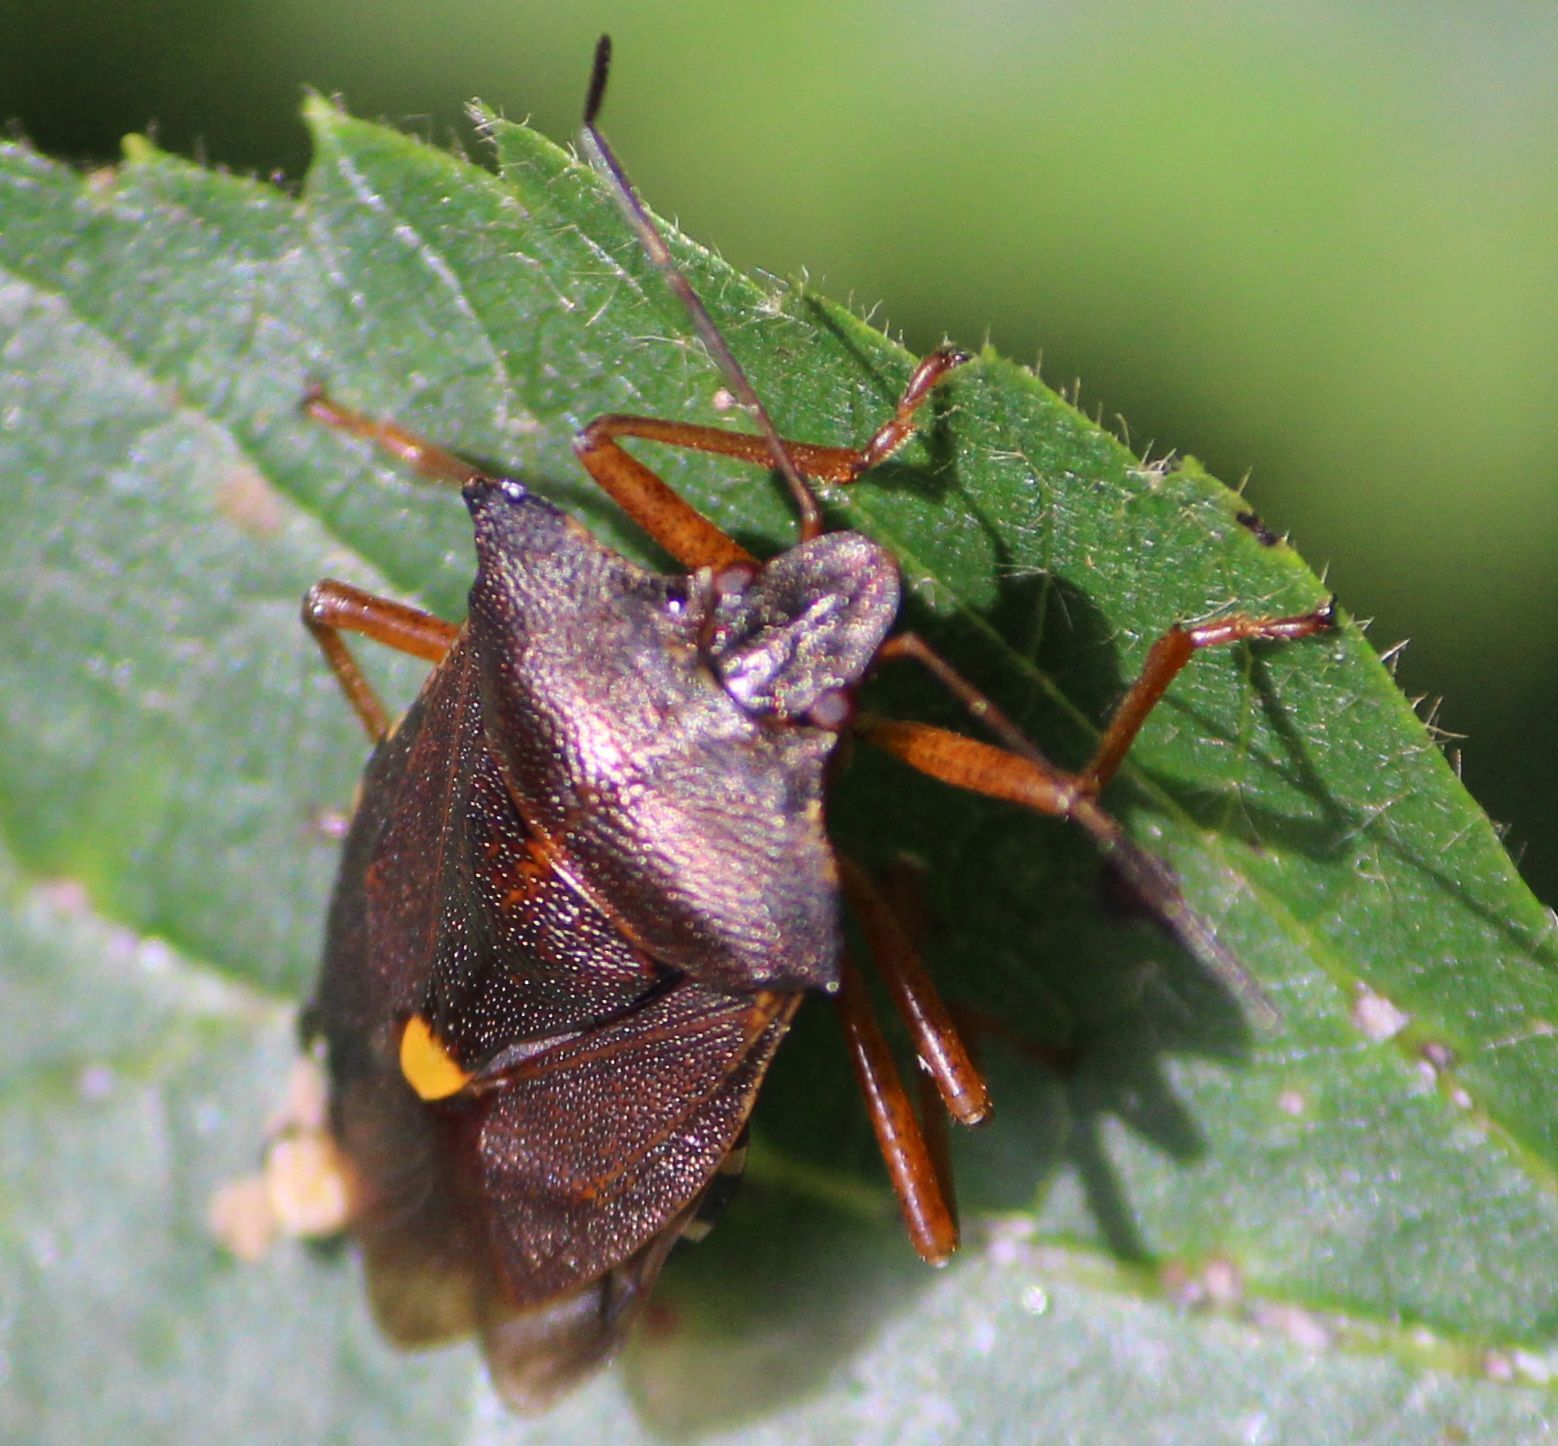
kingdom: Animalia
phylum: Arthropoda
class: Insecta
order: Hemiptera
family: Pentatomidae
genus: Pentatoma
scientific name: Pentatoma rufipes
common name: Forest bug
